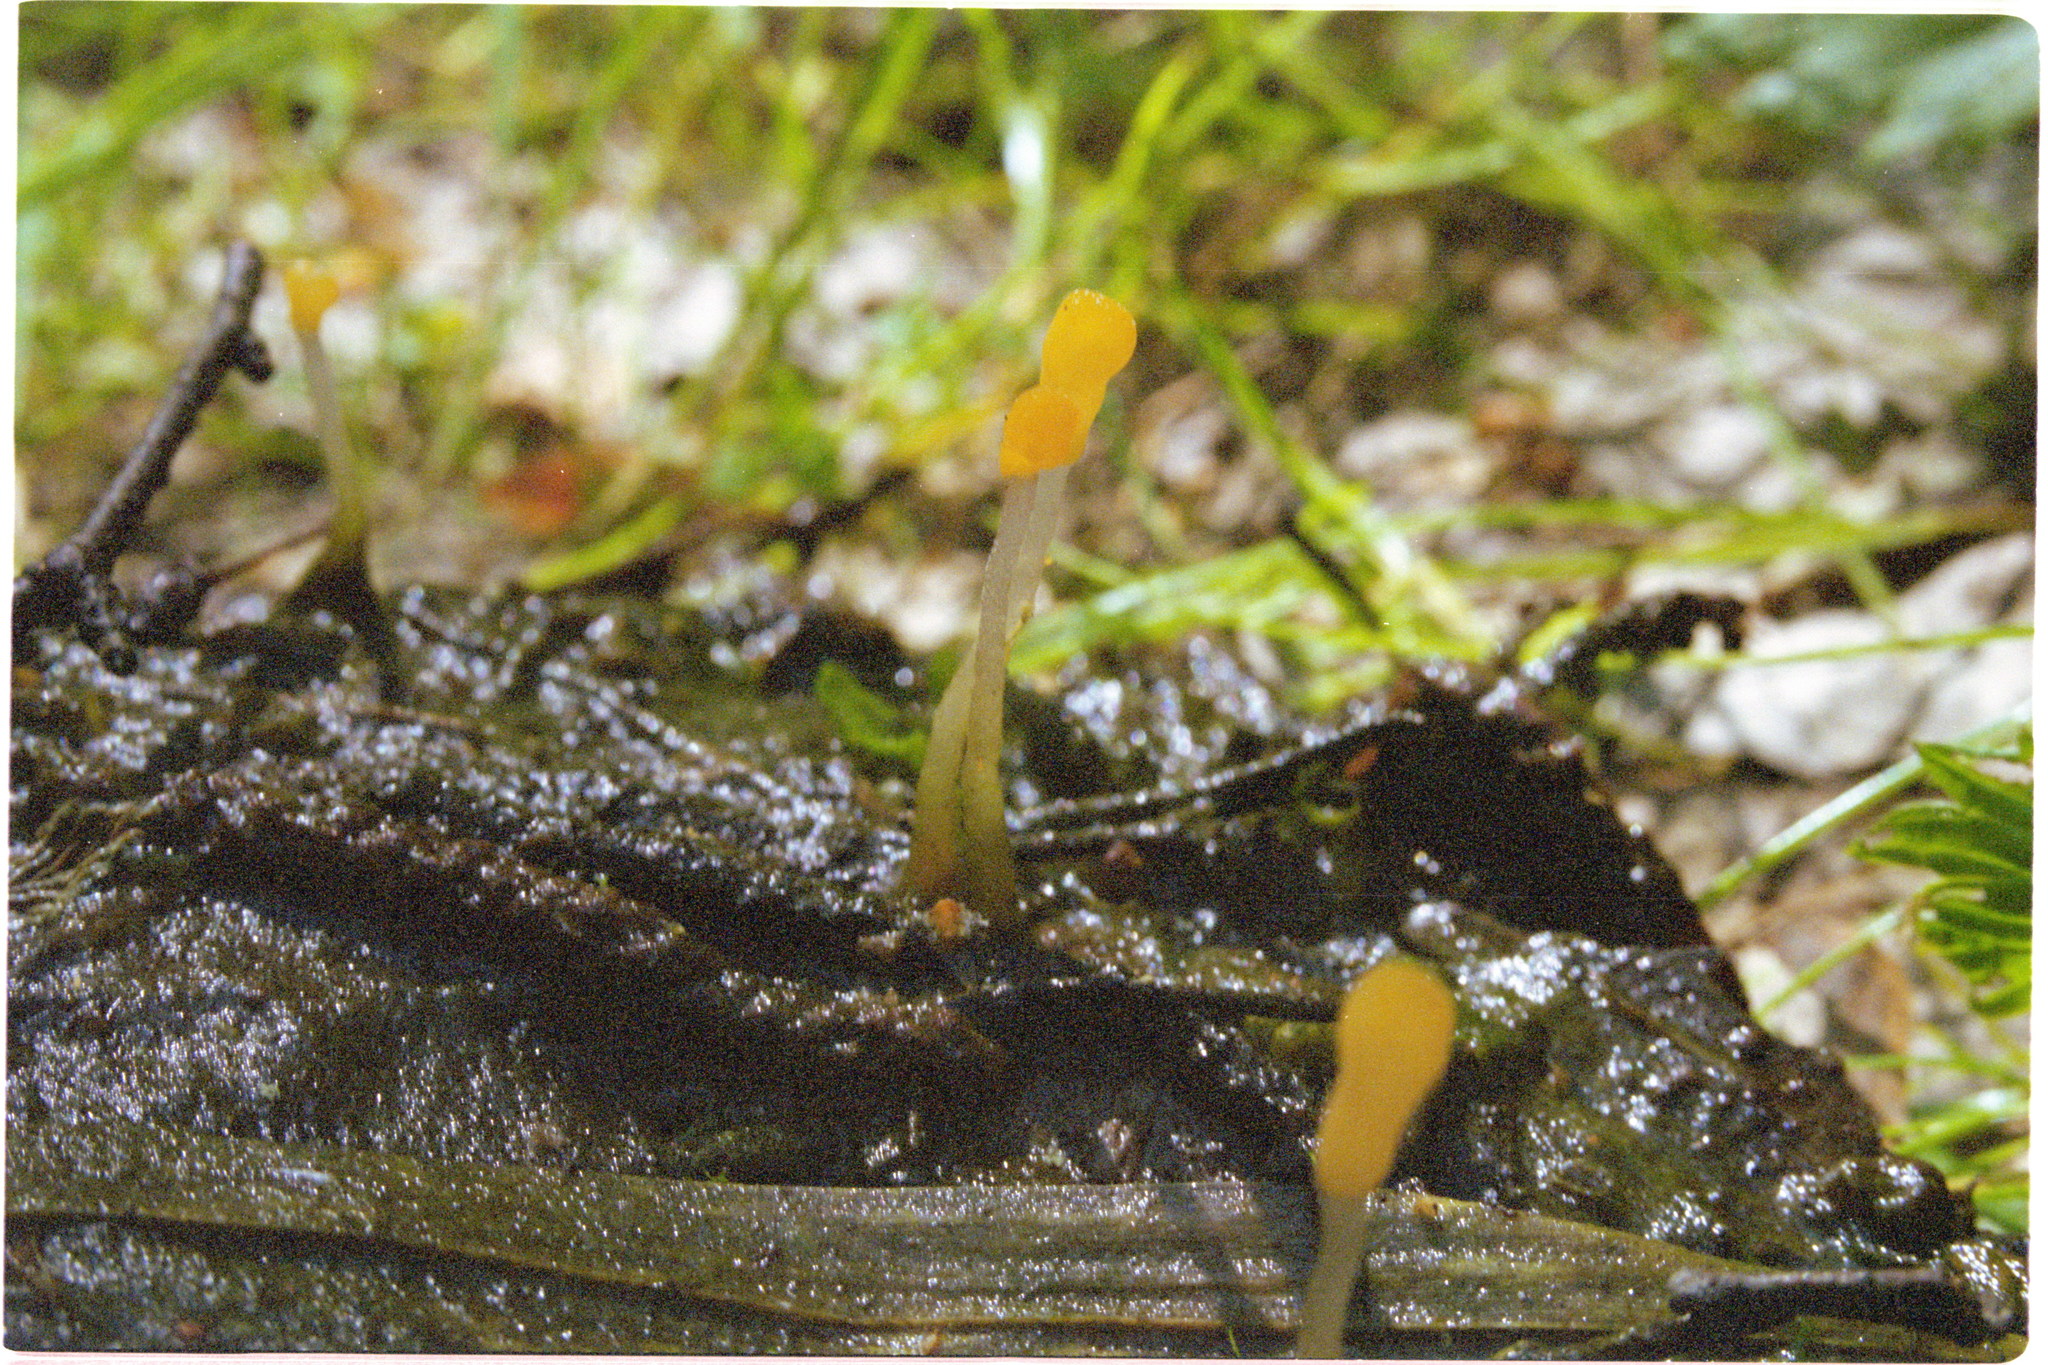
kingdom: Fungi
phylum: Ascomycota
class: Leotiomycetes
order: Helotiales
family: Cenangiaceae
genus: Mitrula
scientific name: Mitrula paludosa
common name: Bog beacon
